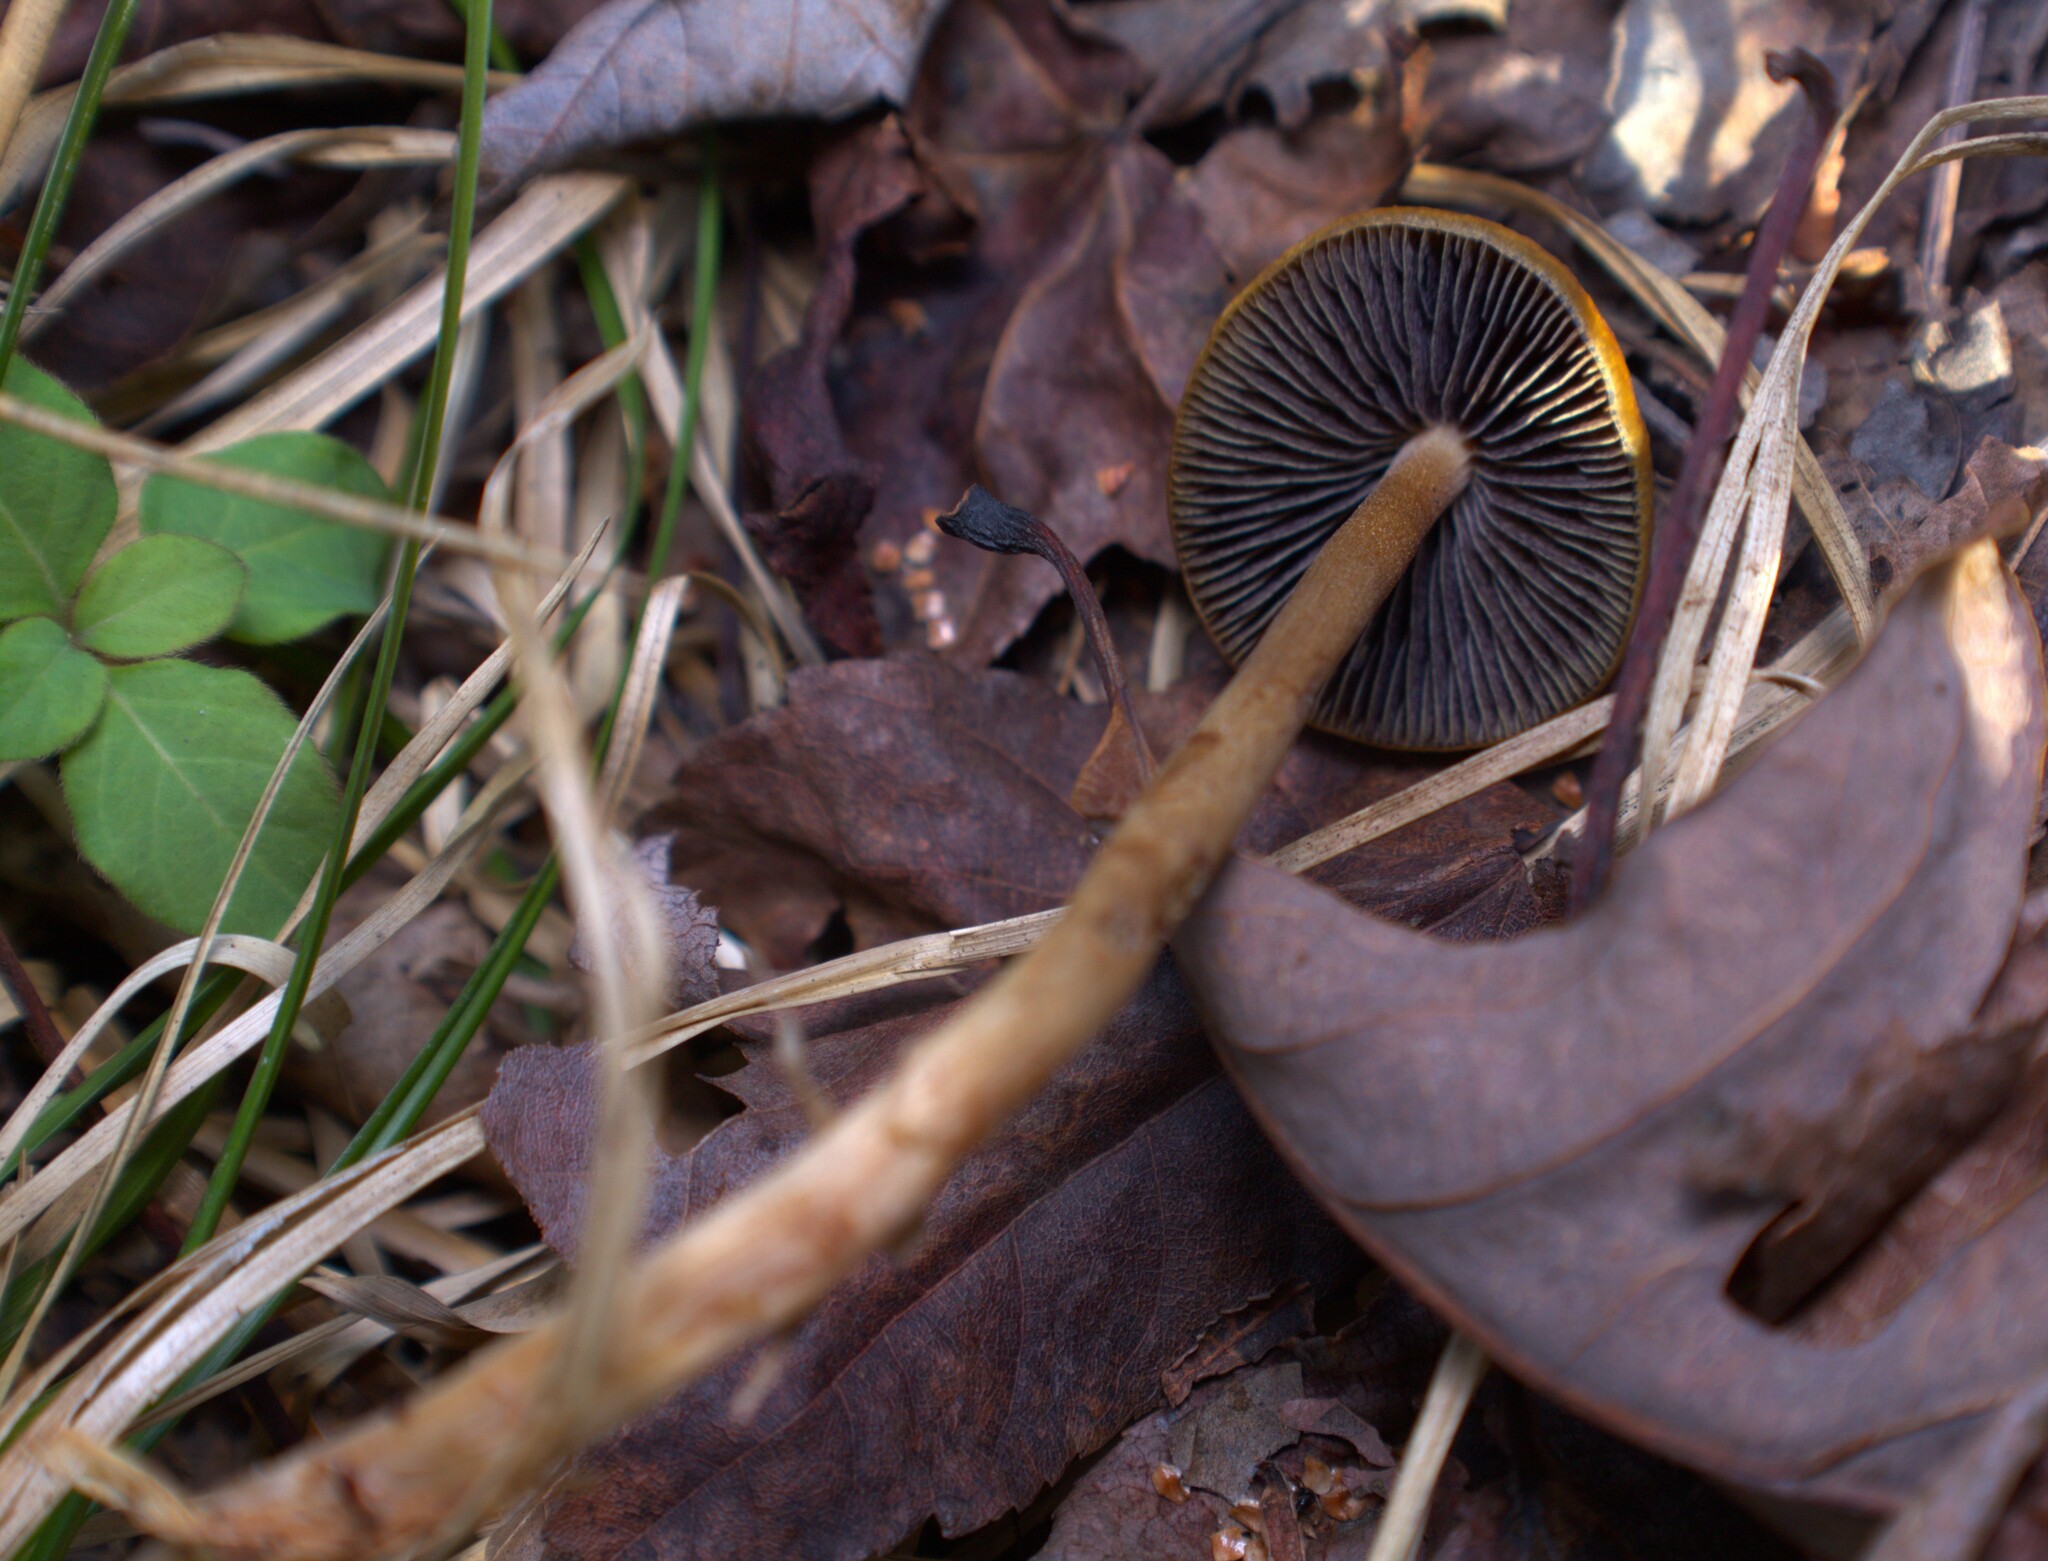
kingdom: Fungi
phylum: Basidiomycota
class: Agaricomycetes
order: Agaricales
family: Bolbitiaceae
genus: Panaeolus
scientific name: Panaeolus cinctulus
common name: Banded mottlegill
